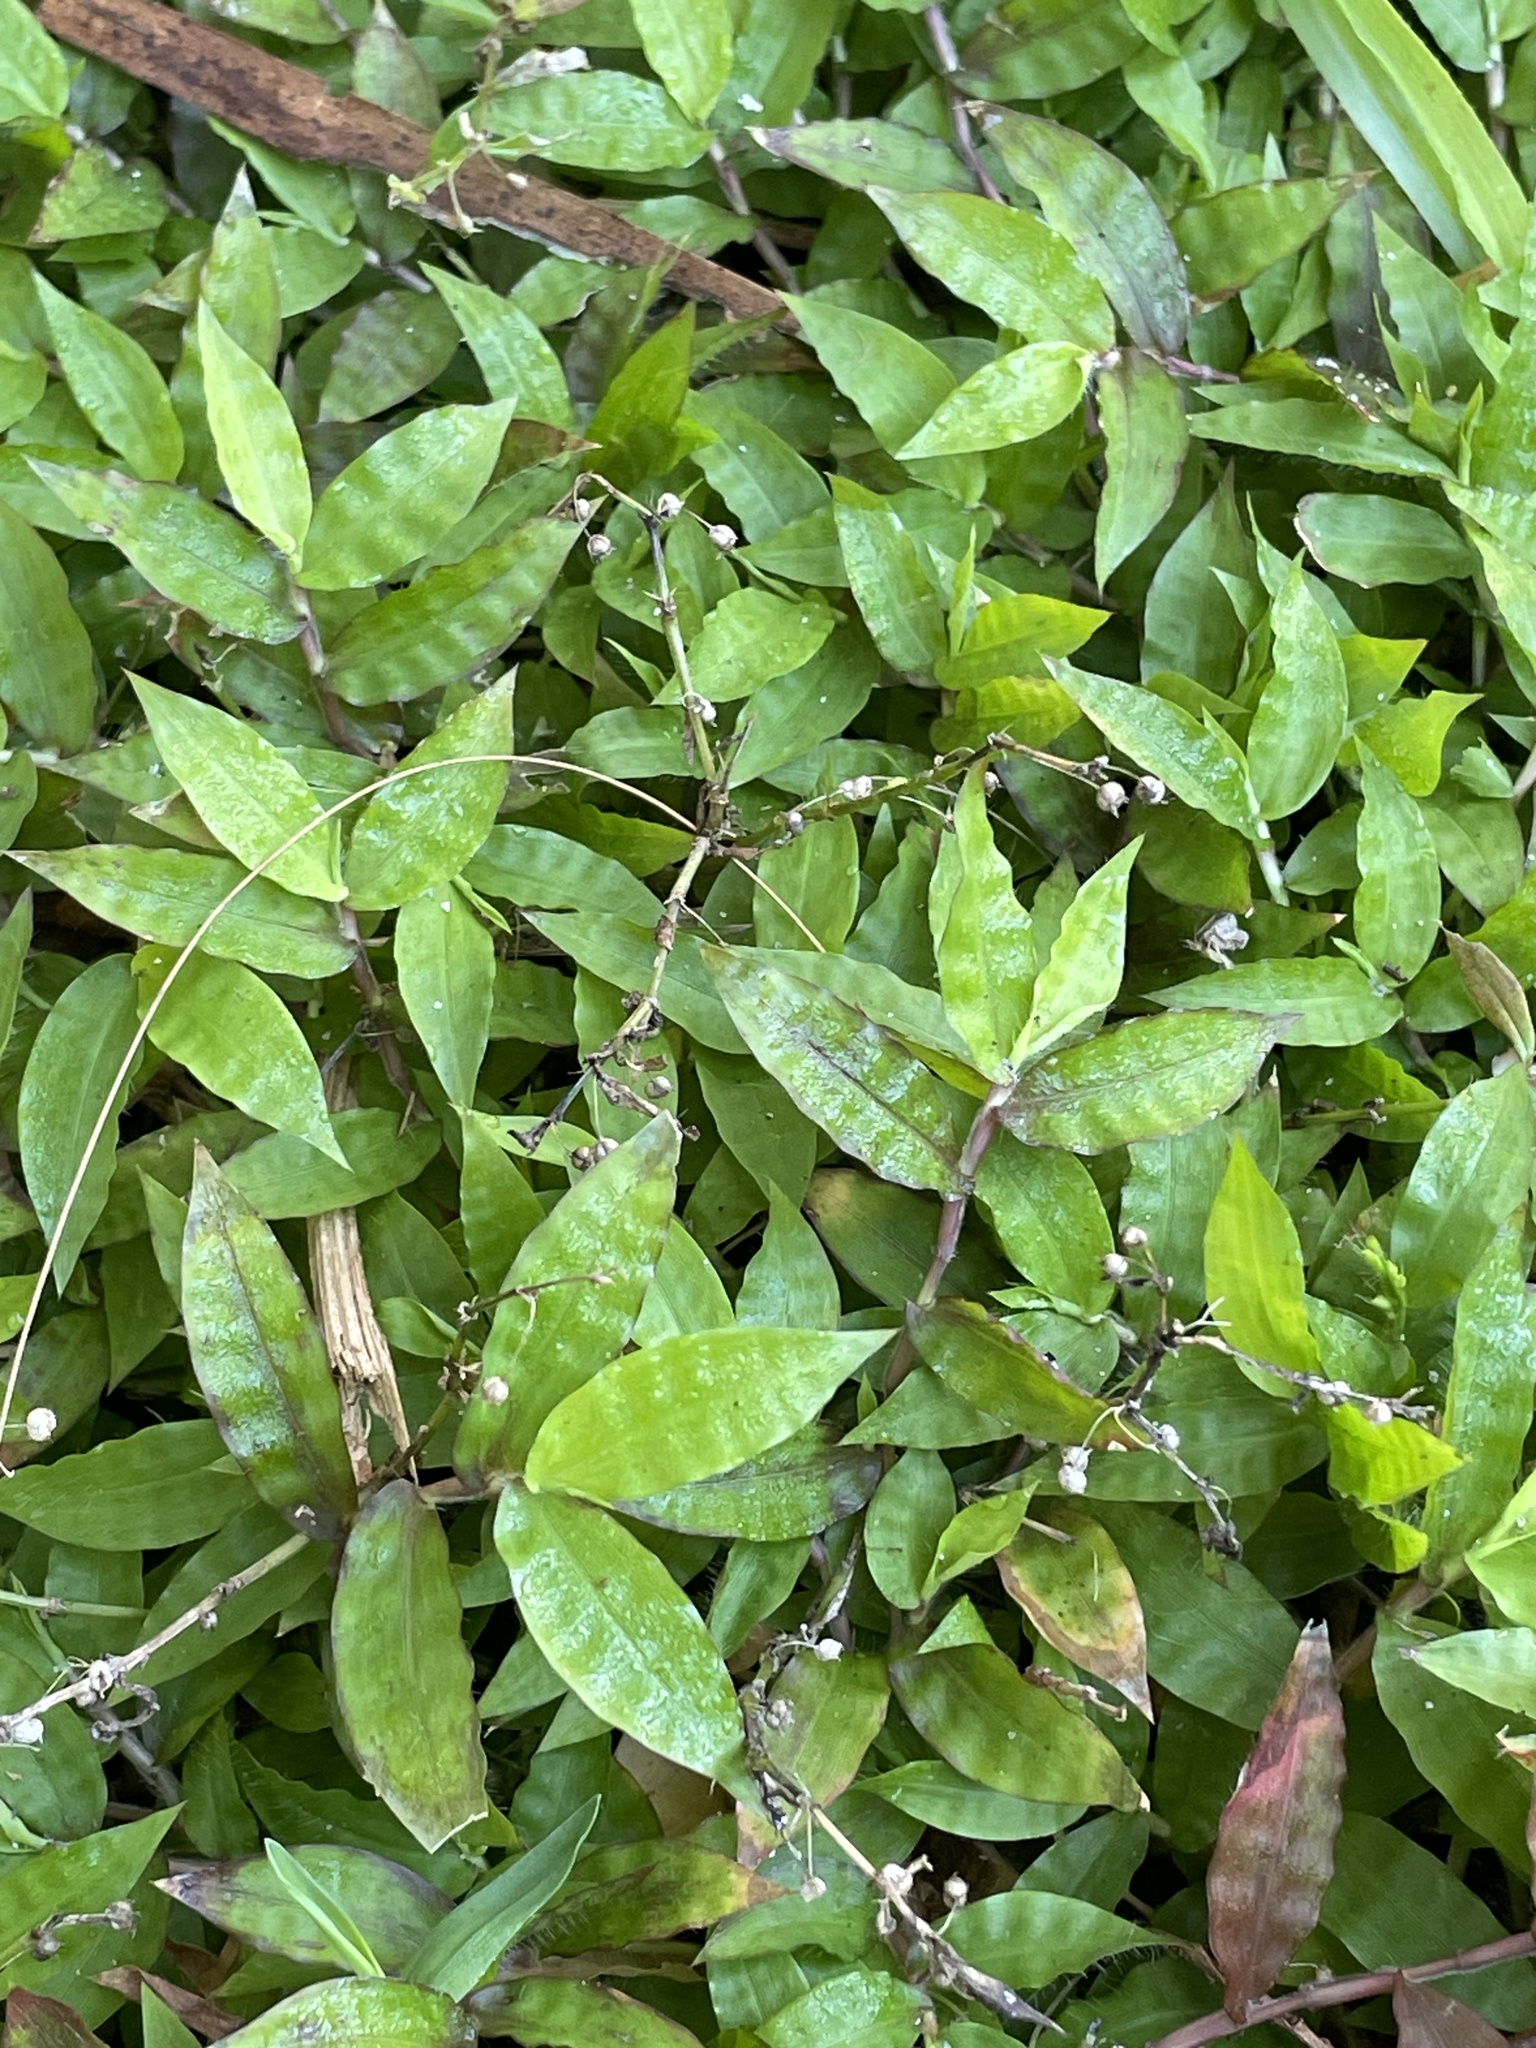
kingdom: Plantae
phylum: Tracheophyta
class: Liliopsida
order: Poales
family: Poaceae
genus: Oplismenus
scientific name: Oplismenus hirtellus
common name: Basketgrass
